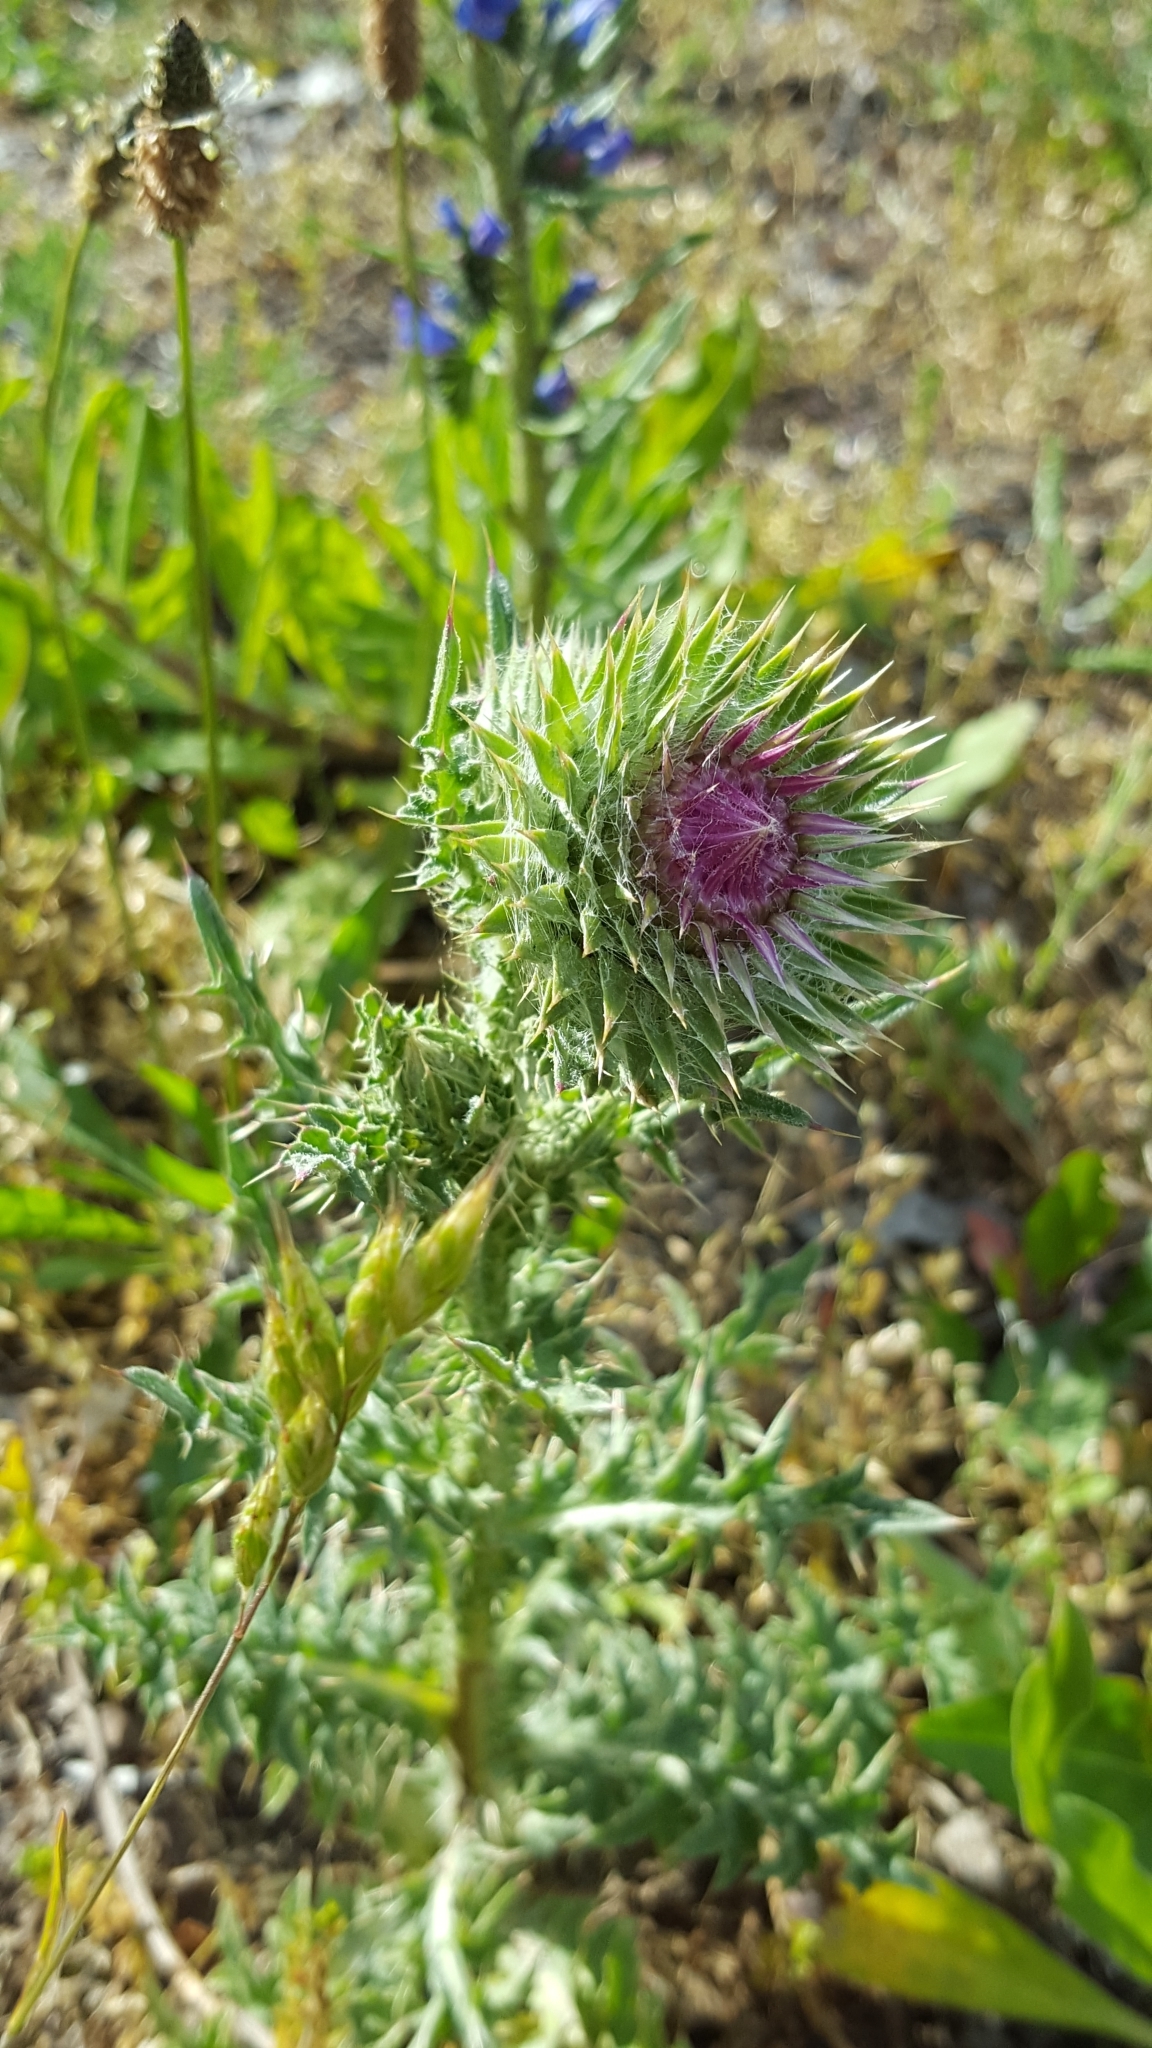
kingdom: Plantae
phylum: Tracheophyta
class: Magnoliopsida
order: Asterales
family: Asteraceae
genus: Carduus
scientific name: Carduus nutans
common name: Musk thistle
